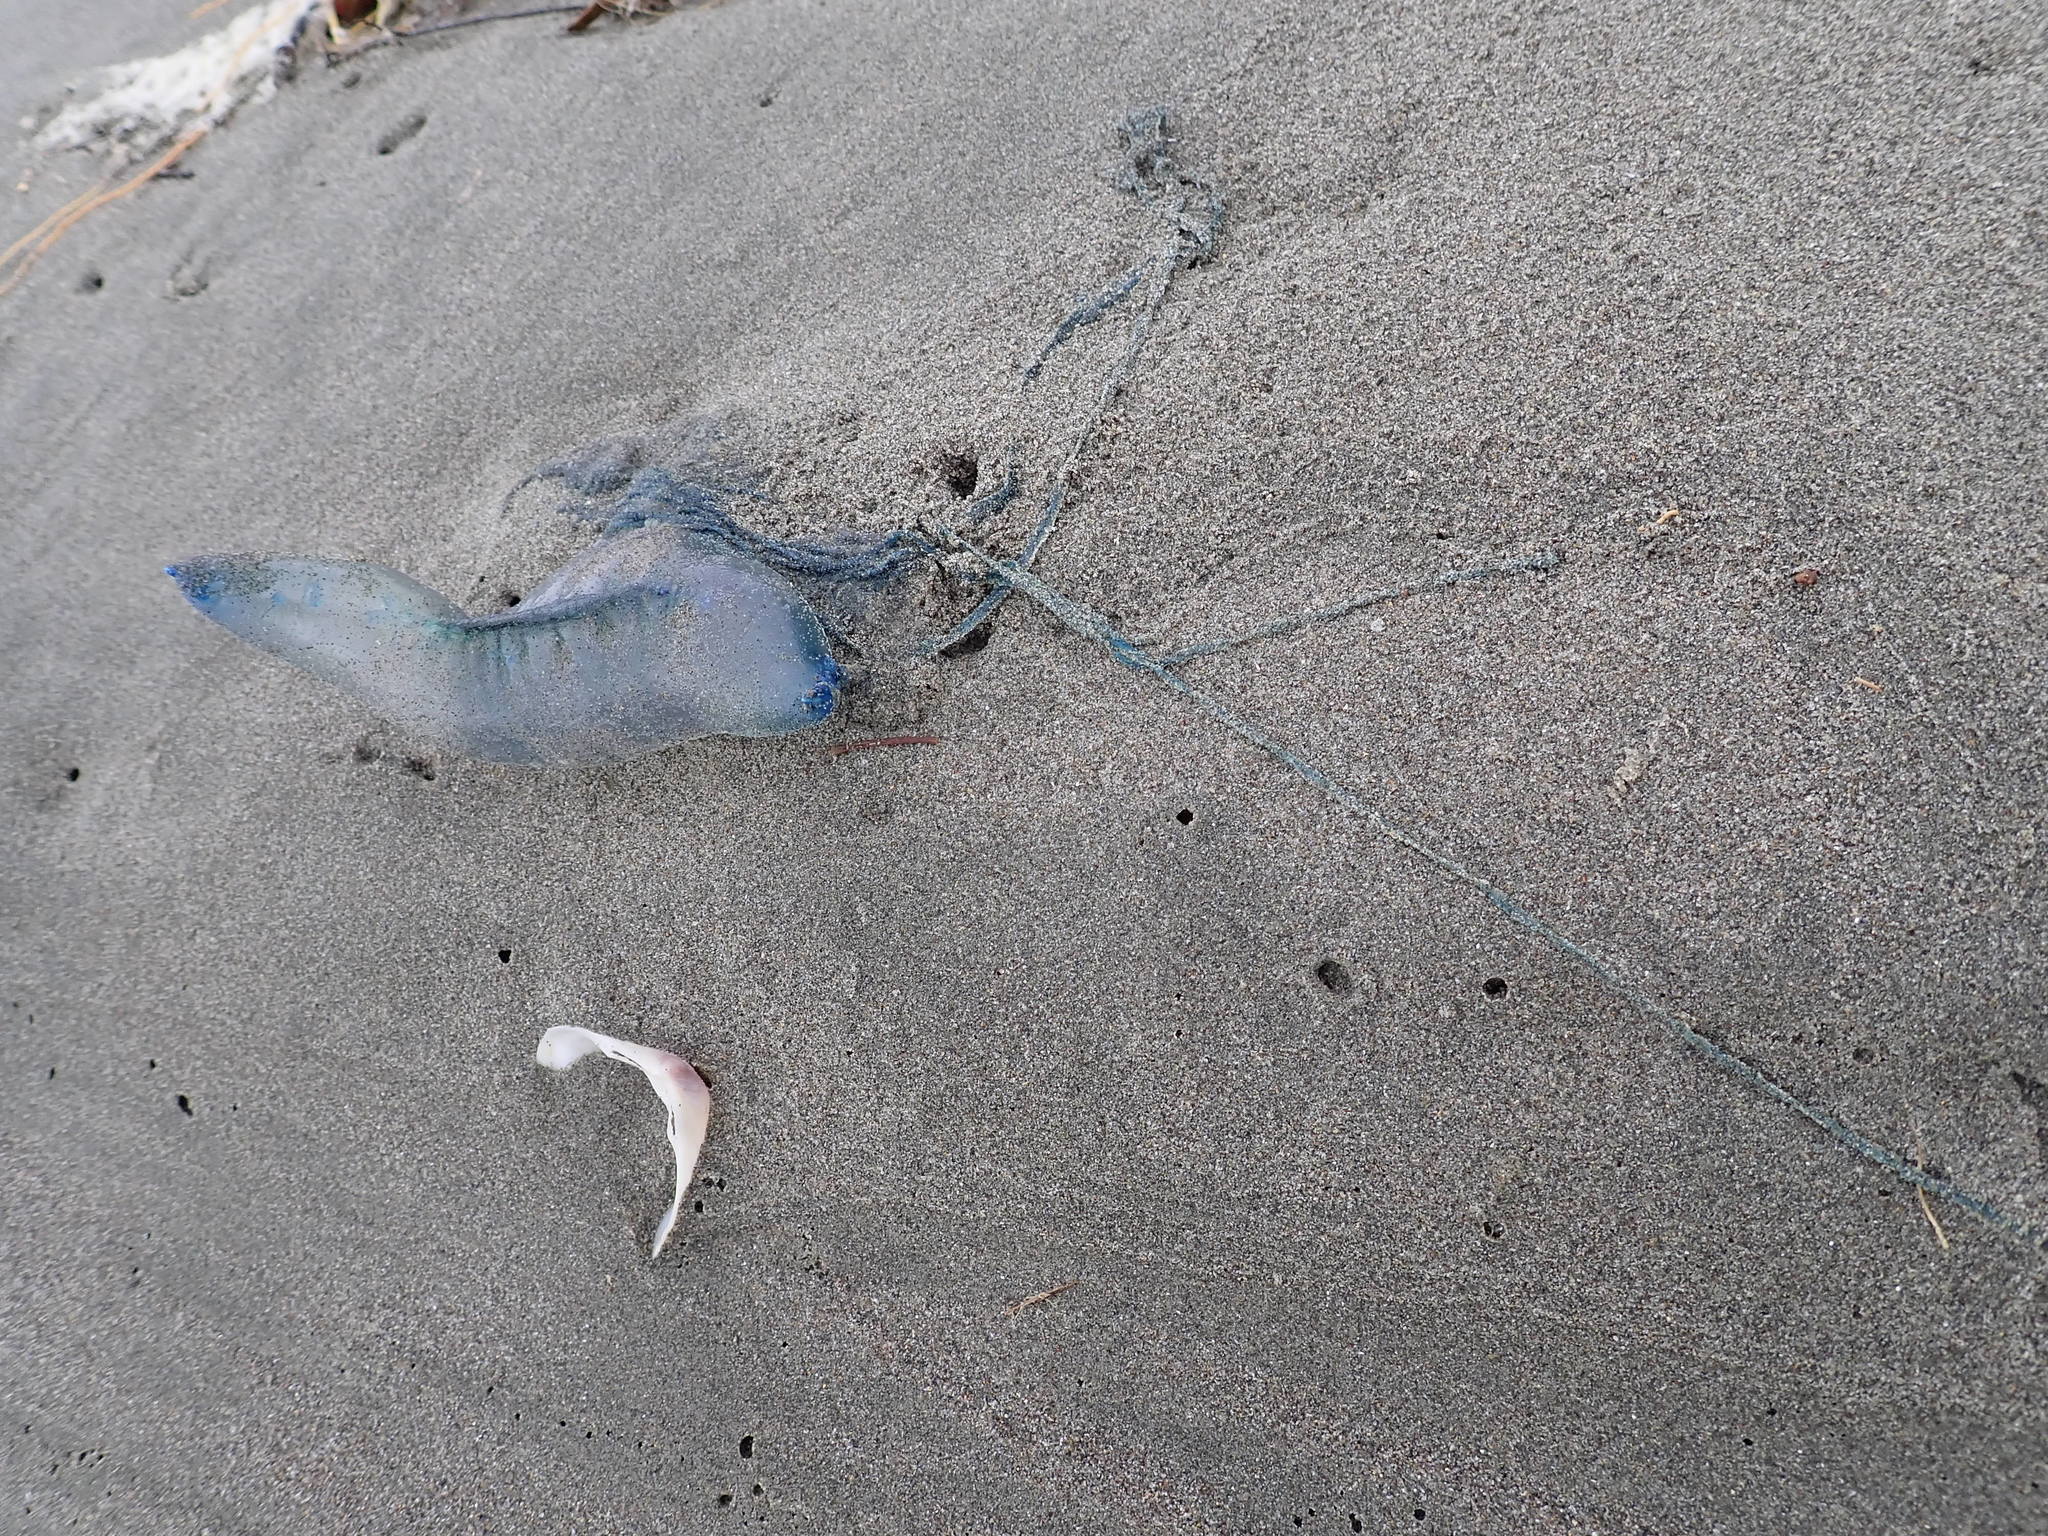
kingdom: Animalia
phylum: Cnidaria
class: Hydrozoa
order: Siphonophorae
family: Physaliidae
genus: Physalia
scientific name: Physalia physalis
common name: Portuguese man-of-war
